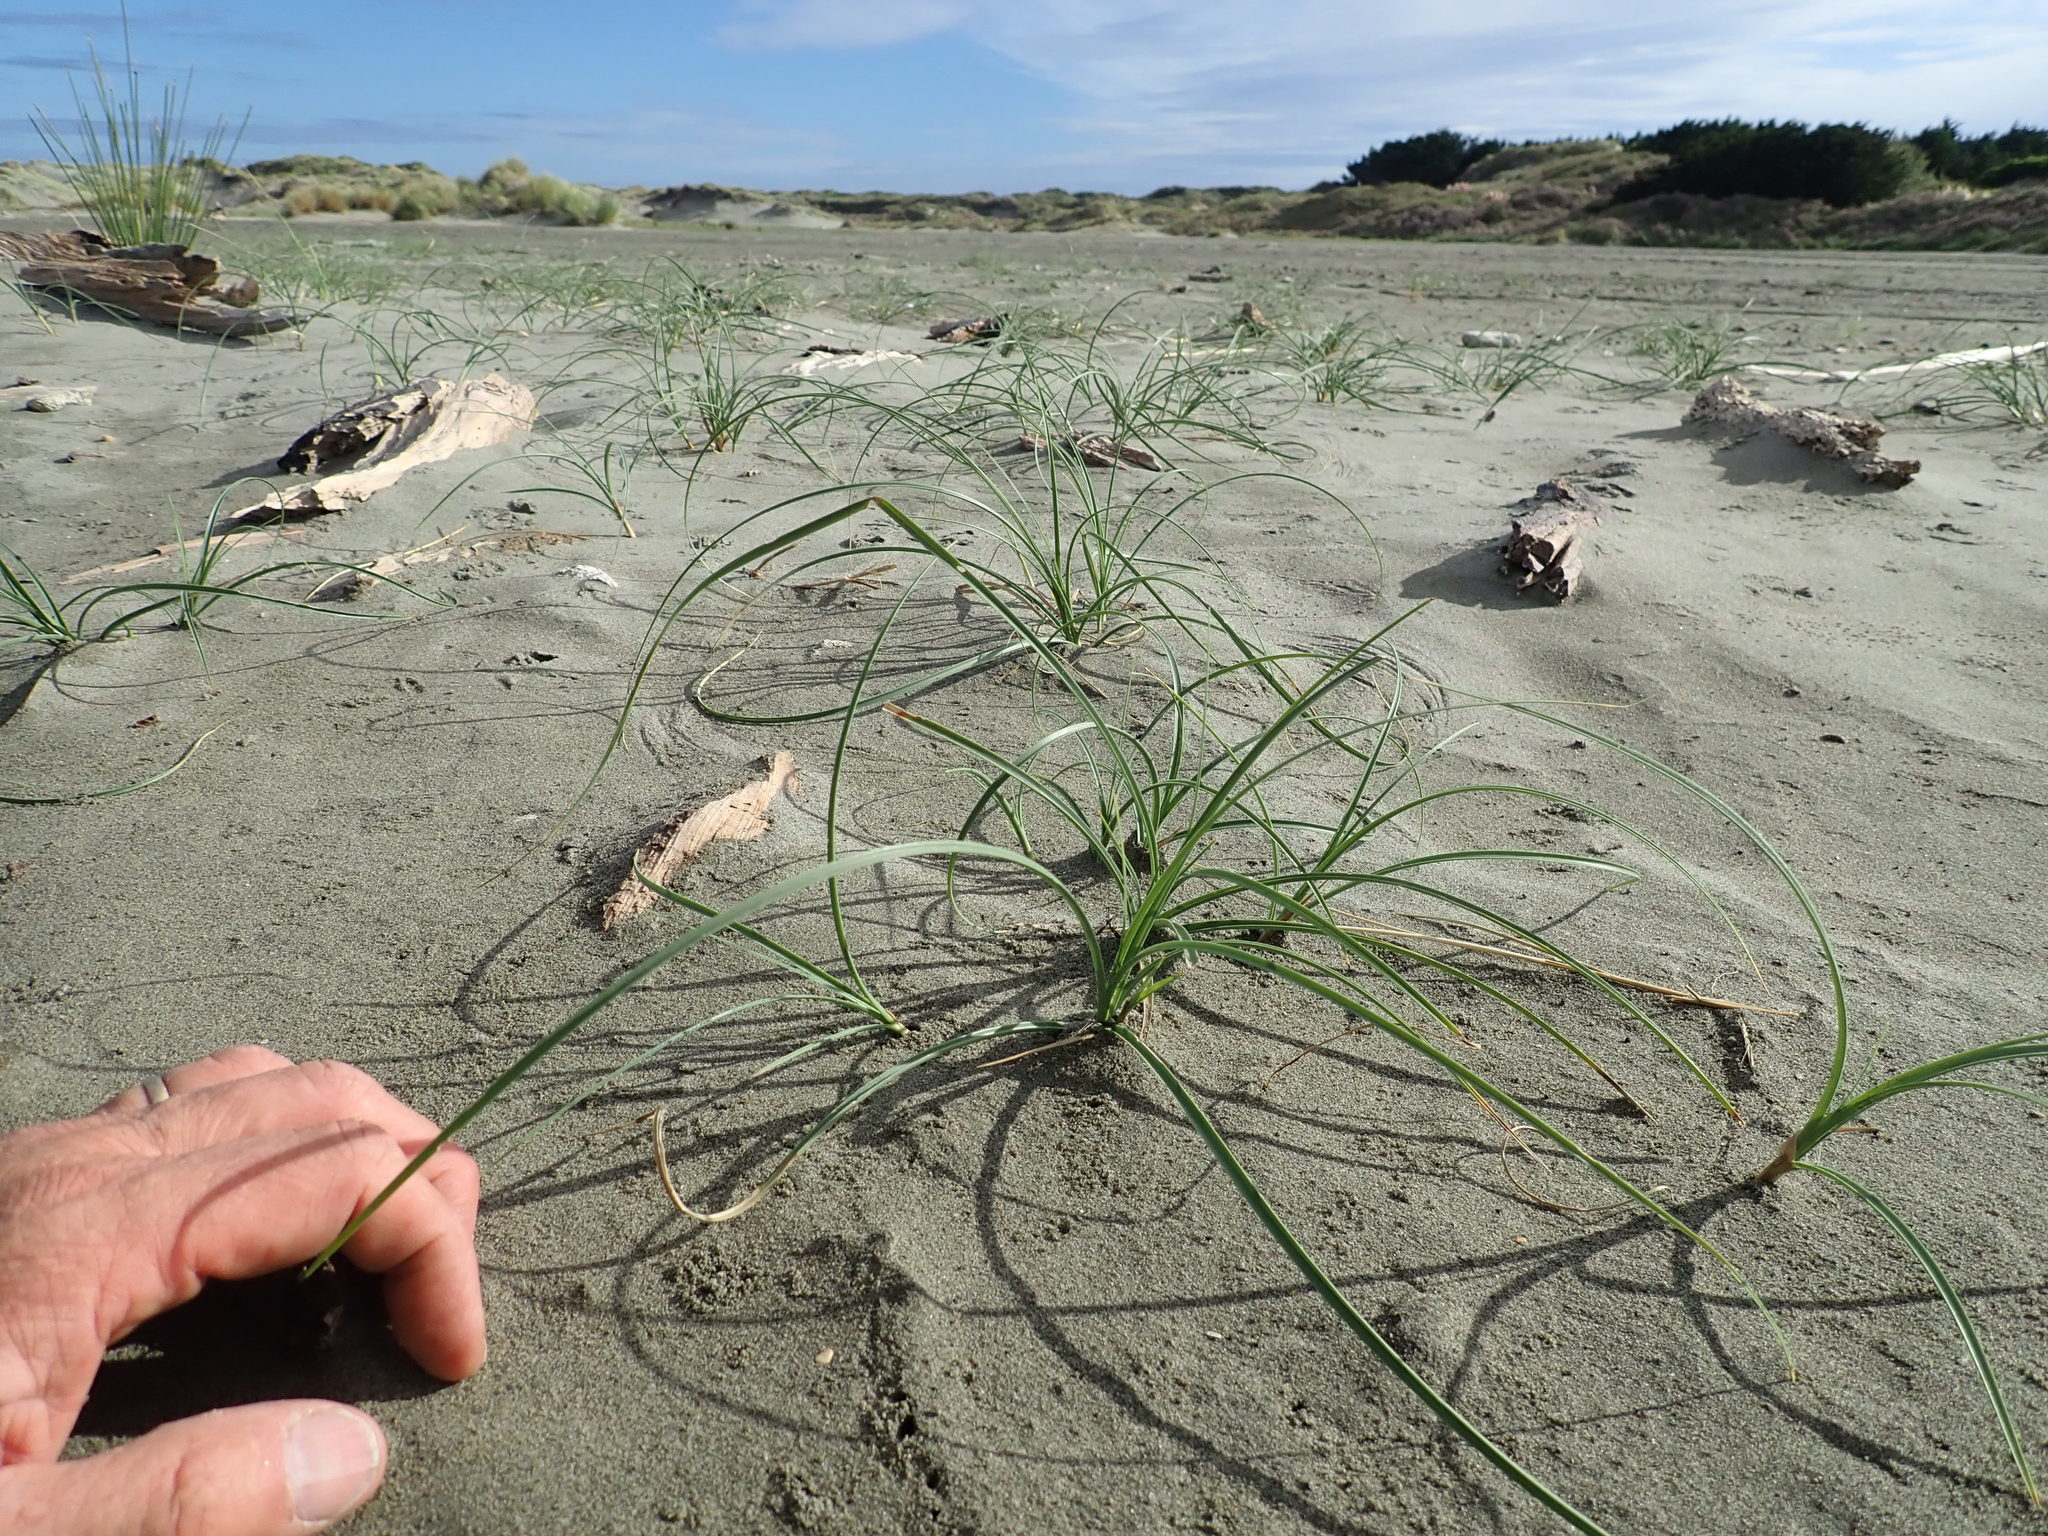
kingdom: Plantae
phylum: Tracheophyta
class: Liliopsida
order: Poales
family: Cyperaceae
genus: Carex
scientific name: Carex pumila
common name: Dwarf sedge
